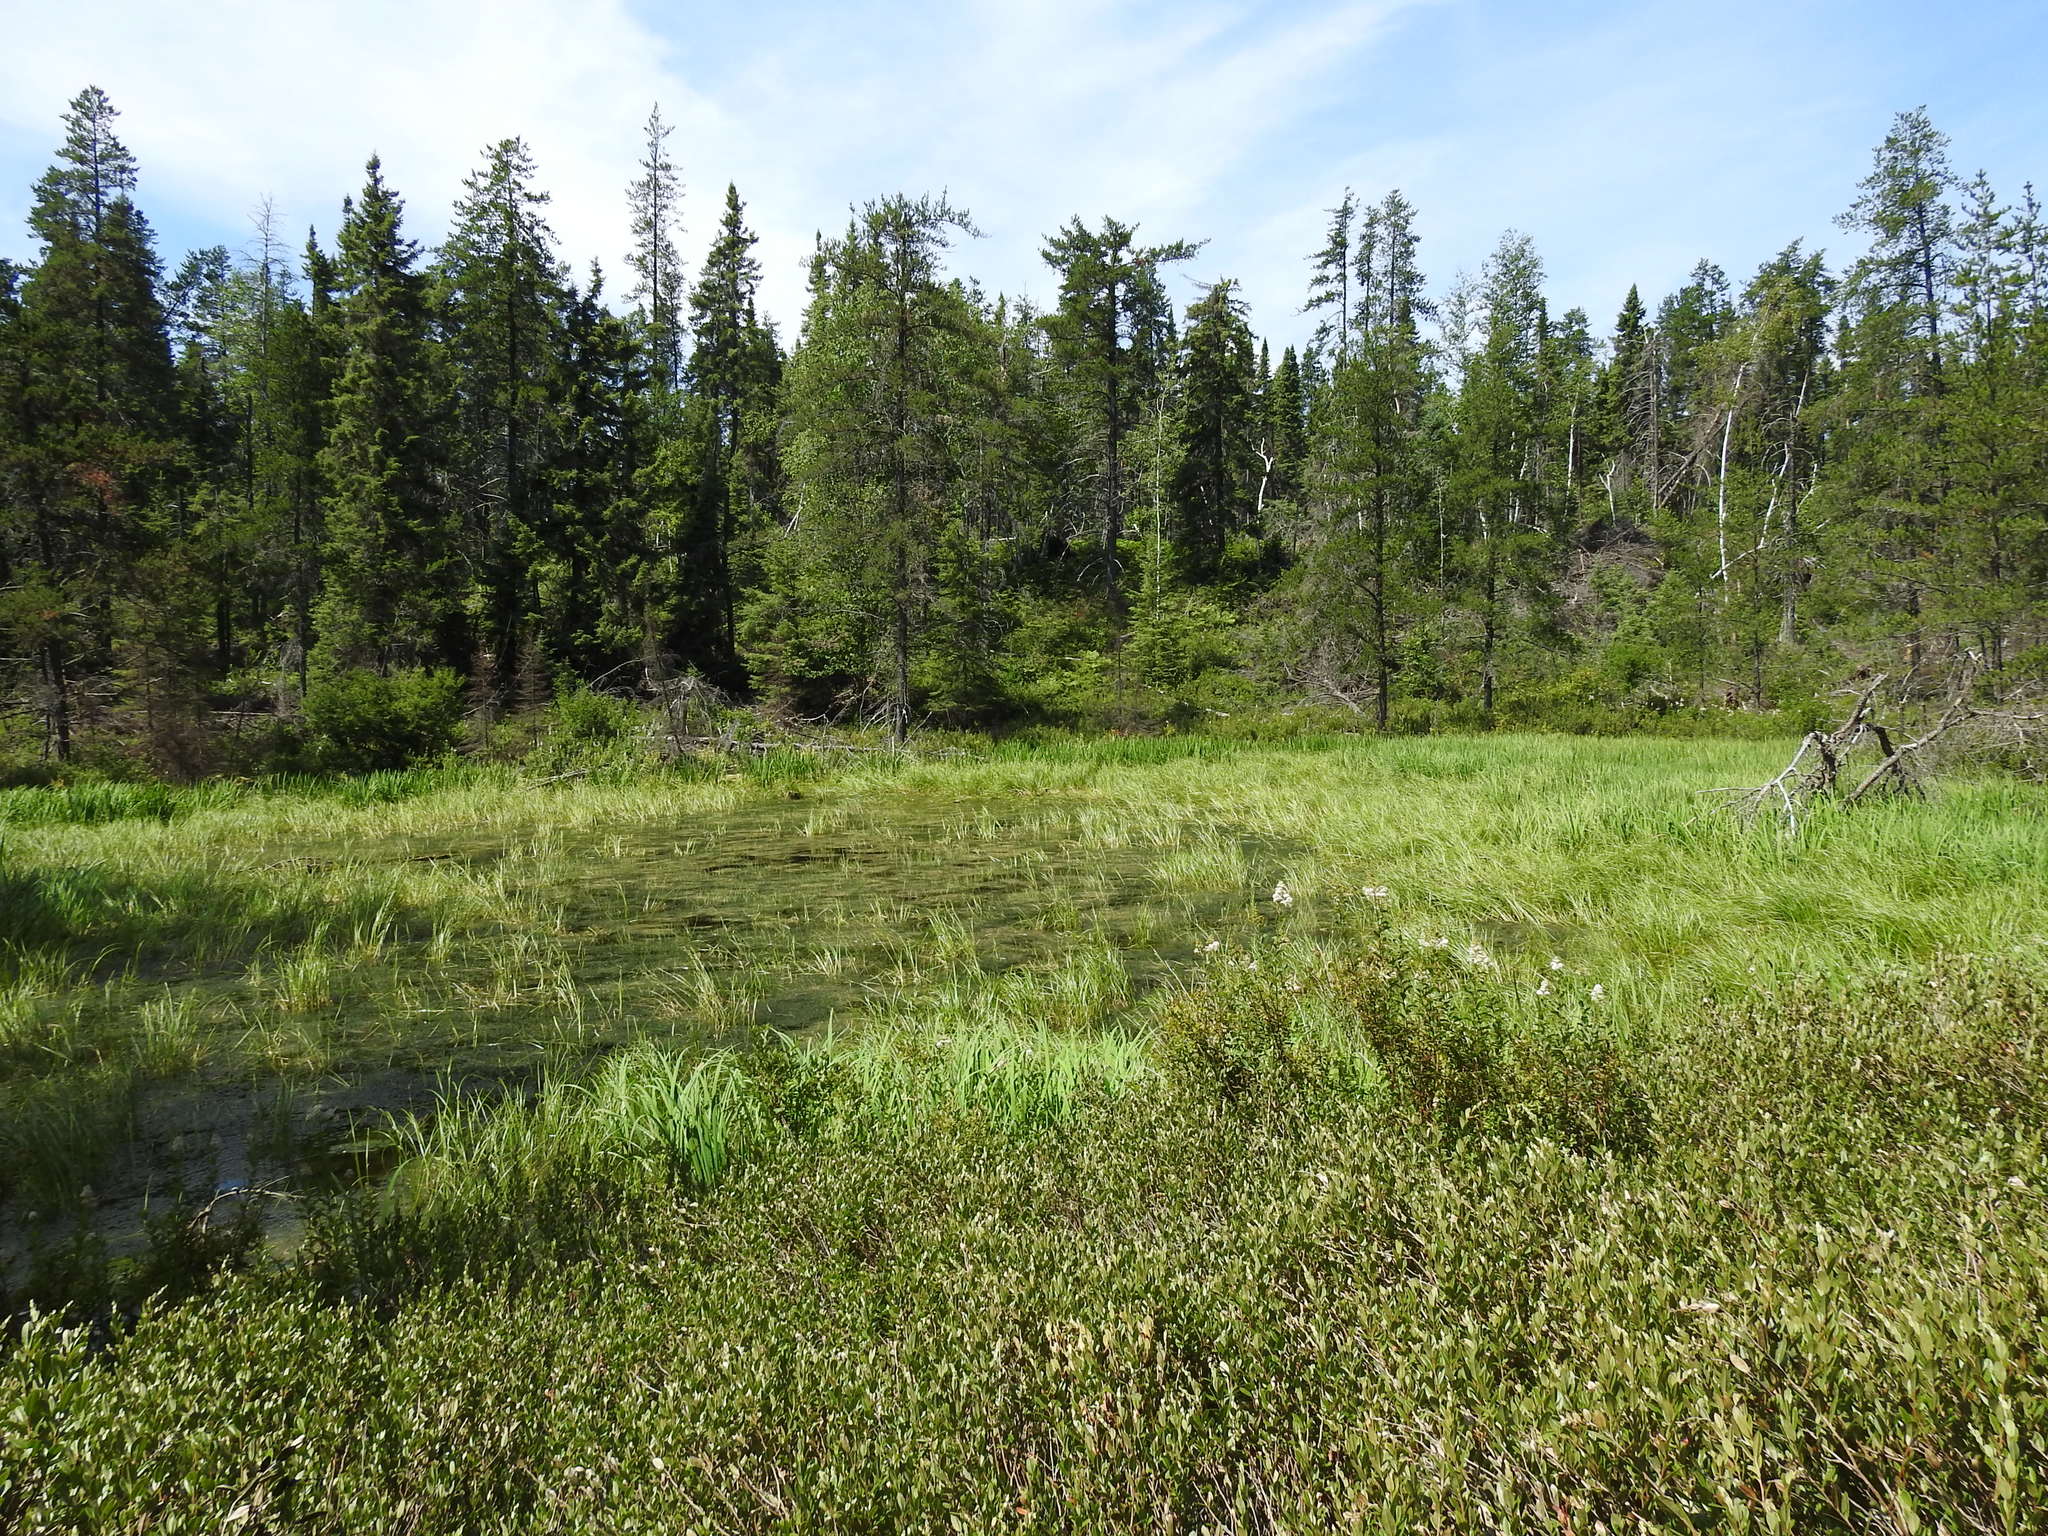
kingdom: Plantae
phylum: Tracheophyta
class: Pinopsida
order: Pinales
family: Pinaceae
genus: Pinus
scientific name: Pinus banksiana
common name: Jack pine
